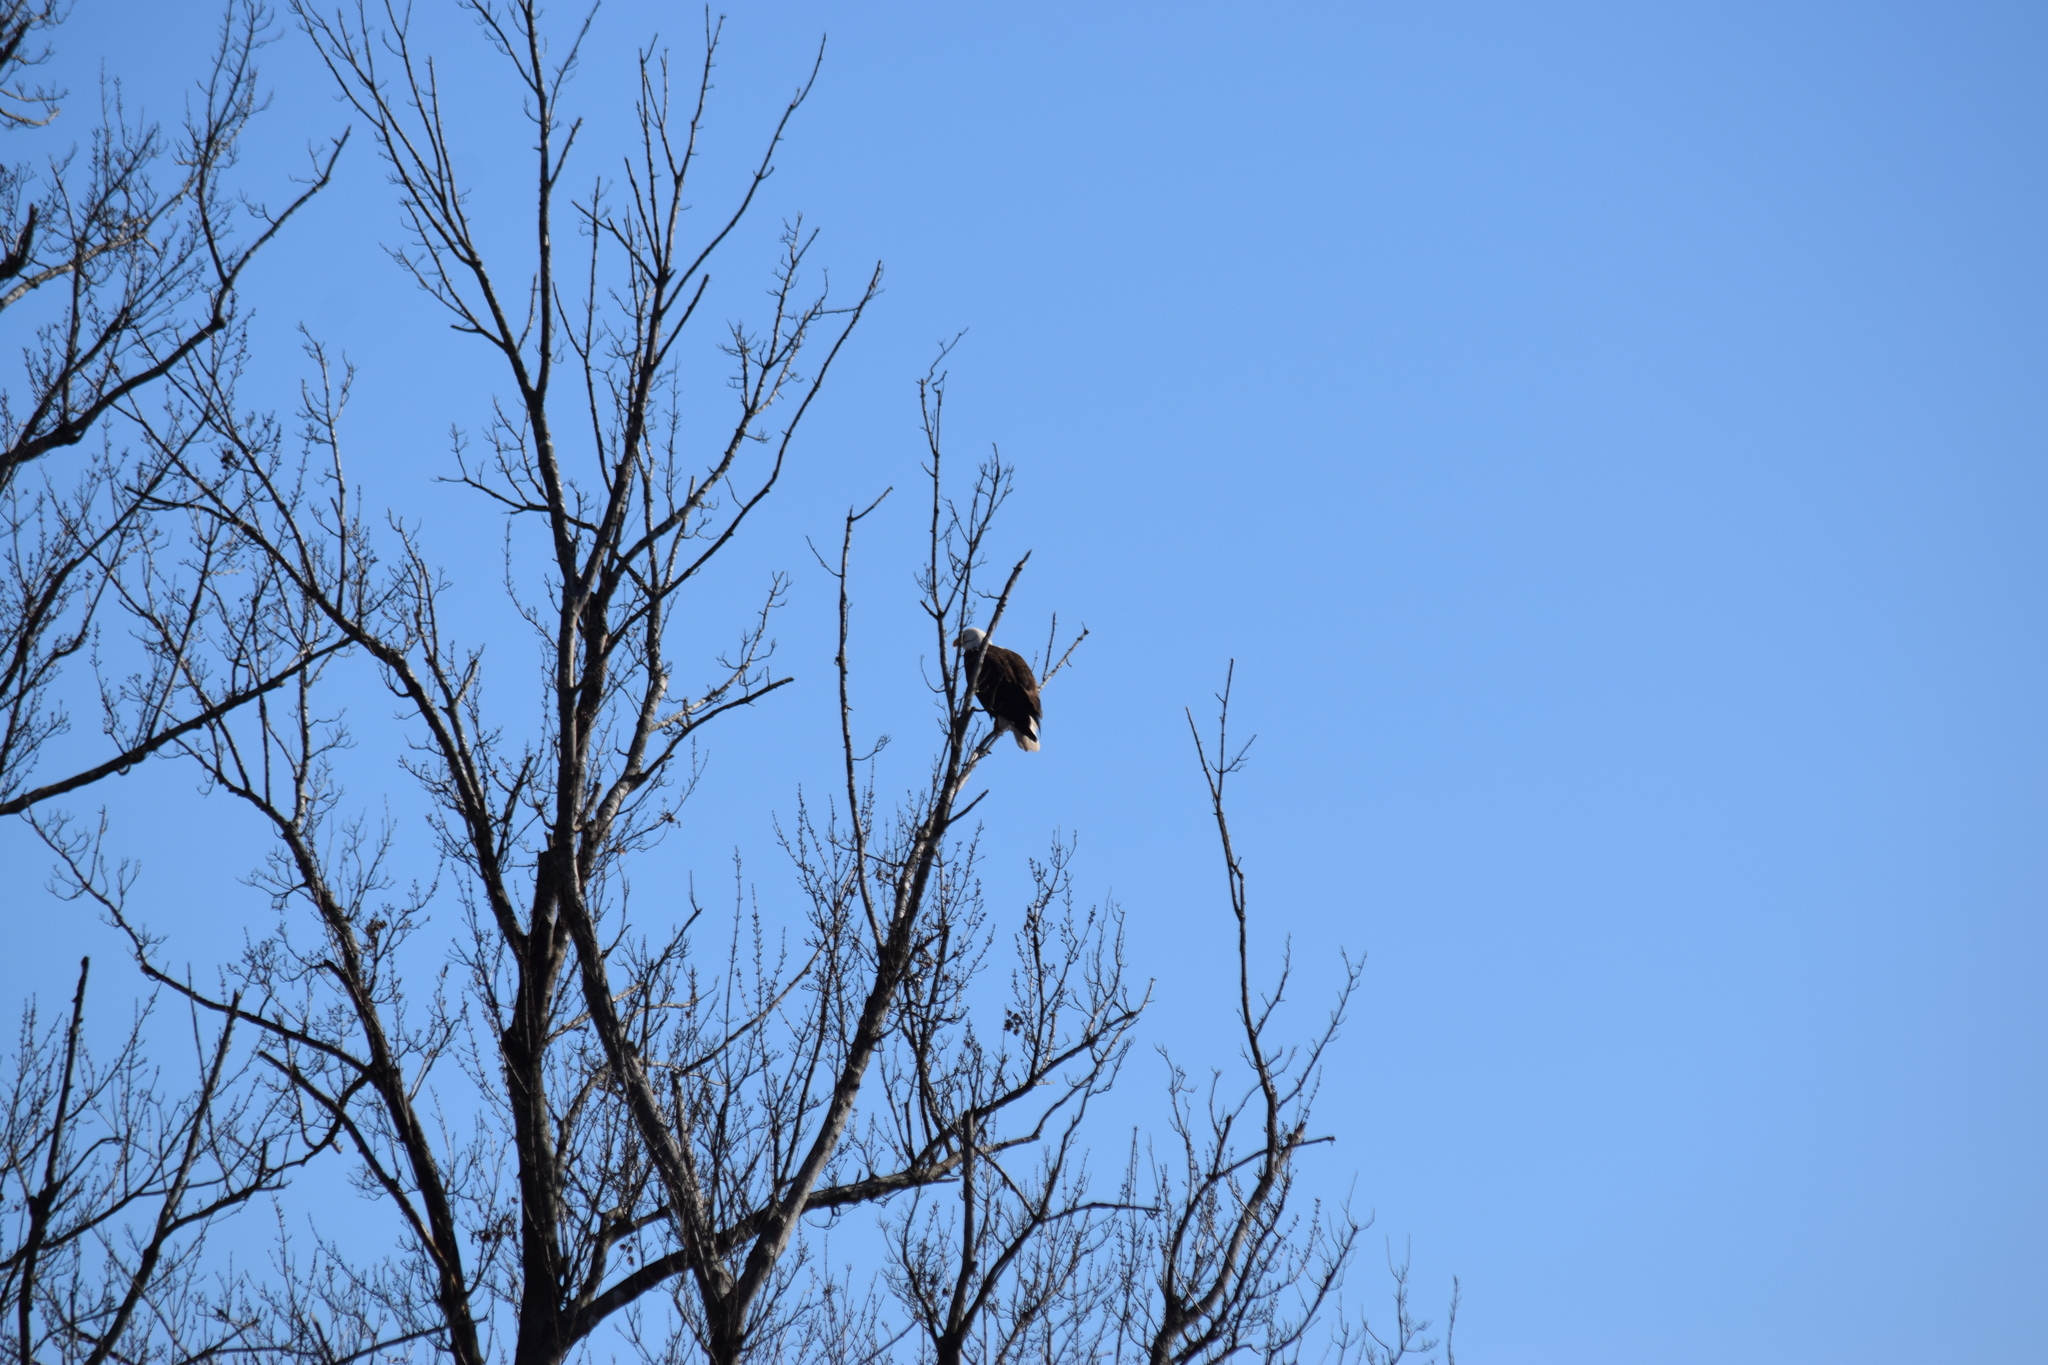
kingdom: Animalia
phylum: Chordata
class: Aves
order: Accipitriformes
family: Accipitridae
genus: Haliaeetus
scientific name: Haliaeetus leucocephalus
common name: Bald eagle
